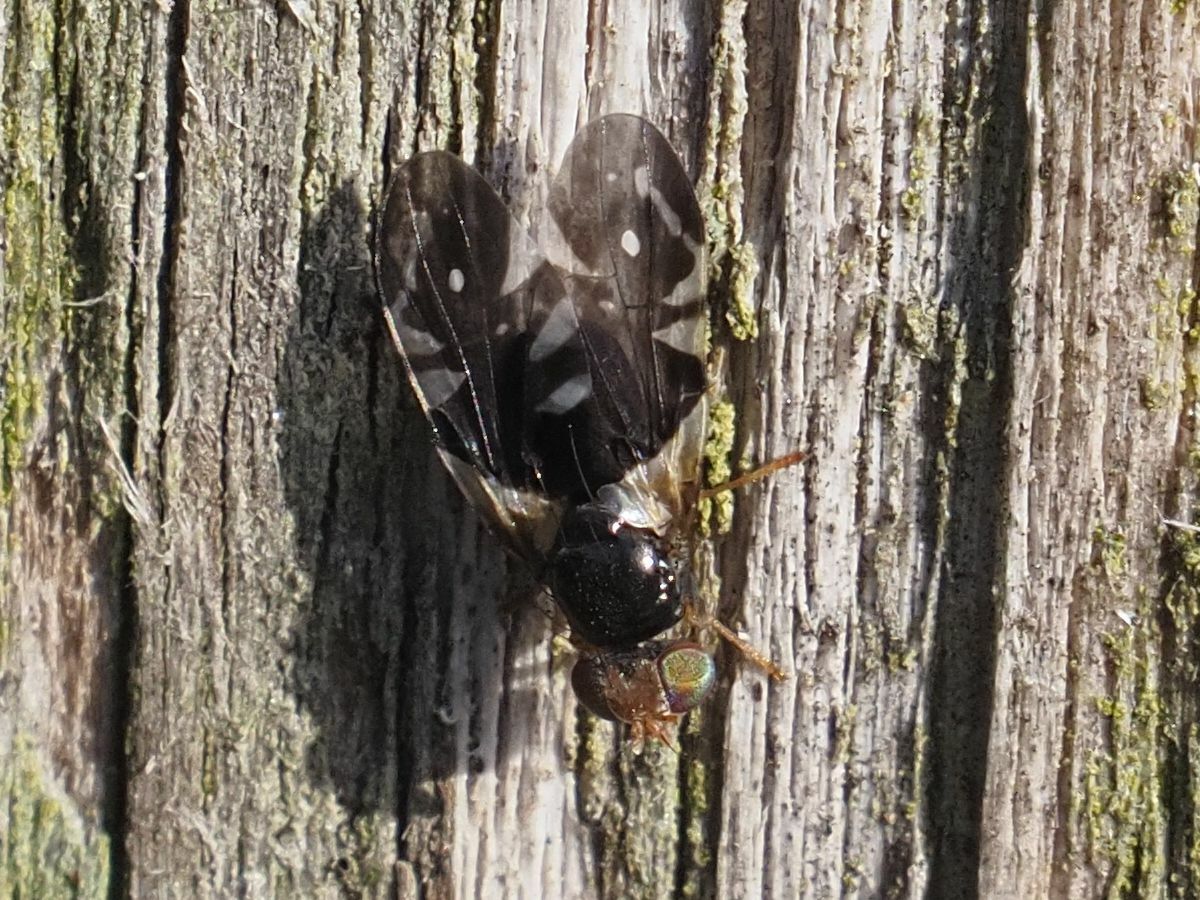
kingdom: Animalia
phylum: Arthropoda
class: Insecta
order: Diptera
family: Tephritidae
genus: Aciura
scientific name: Aciura coryli
